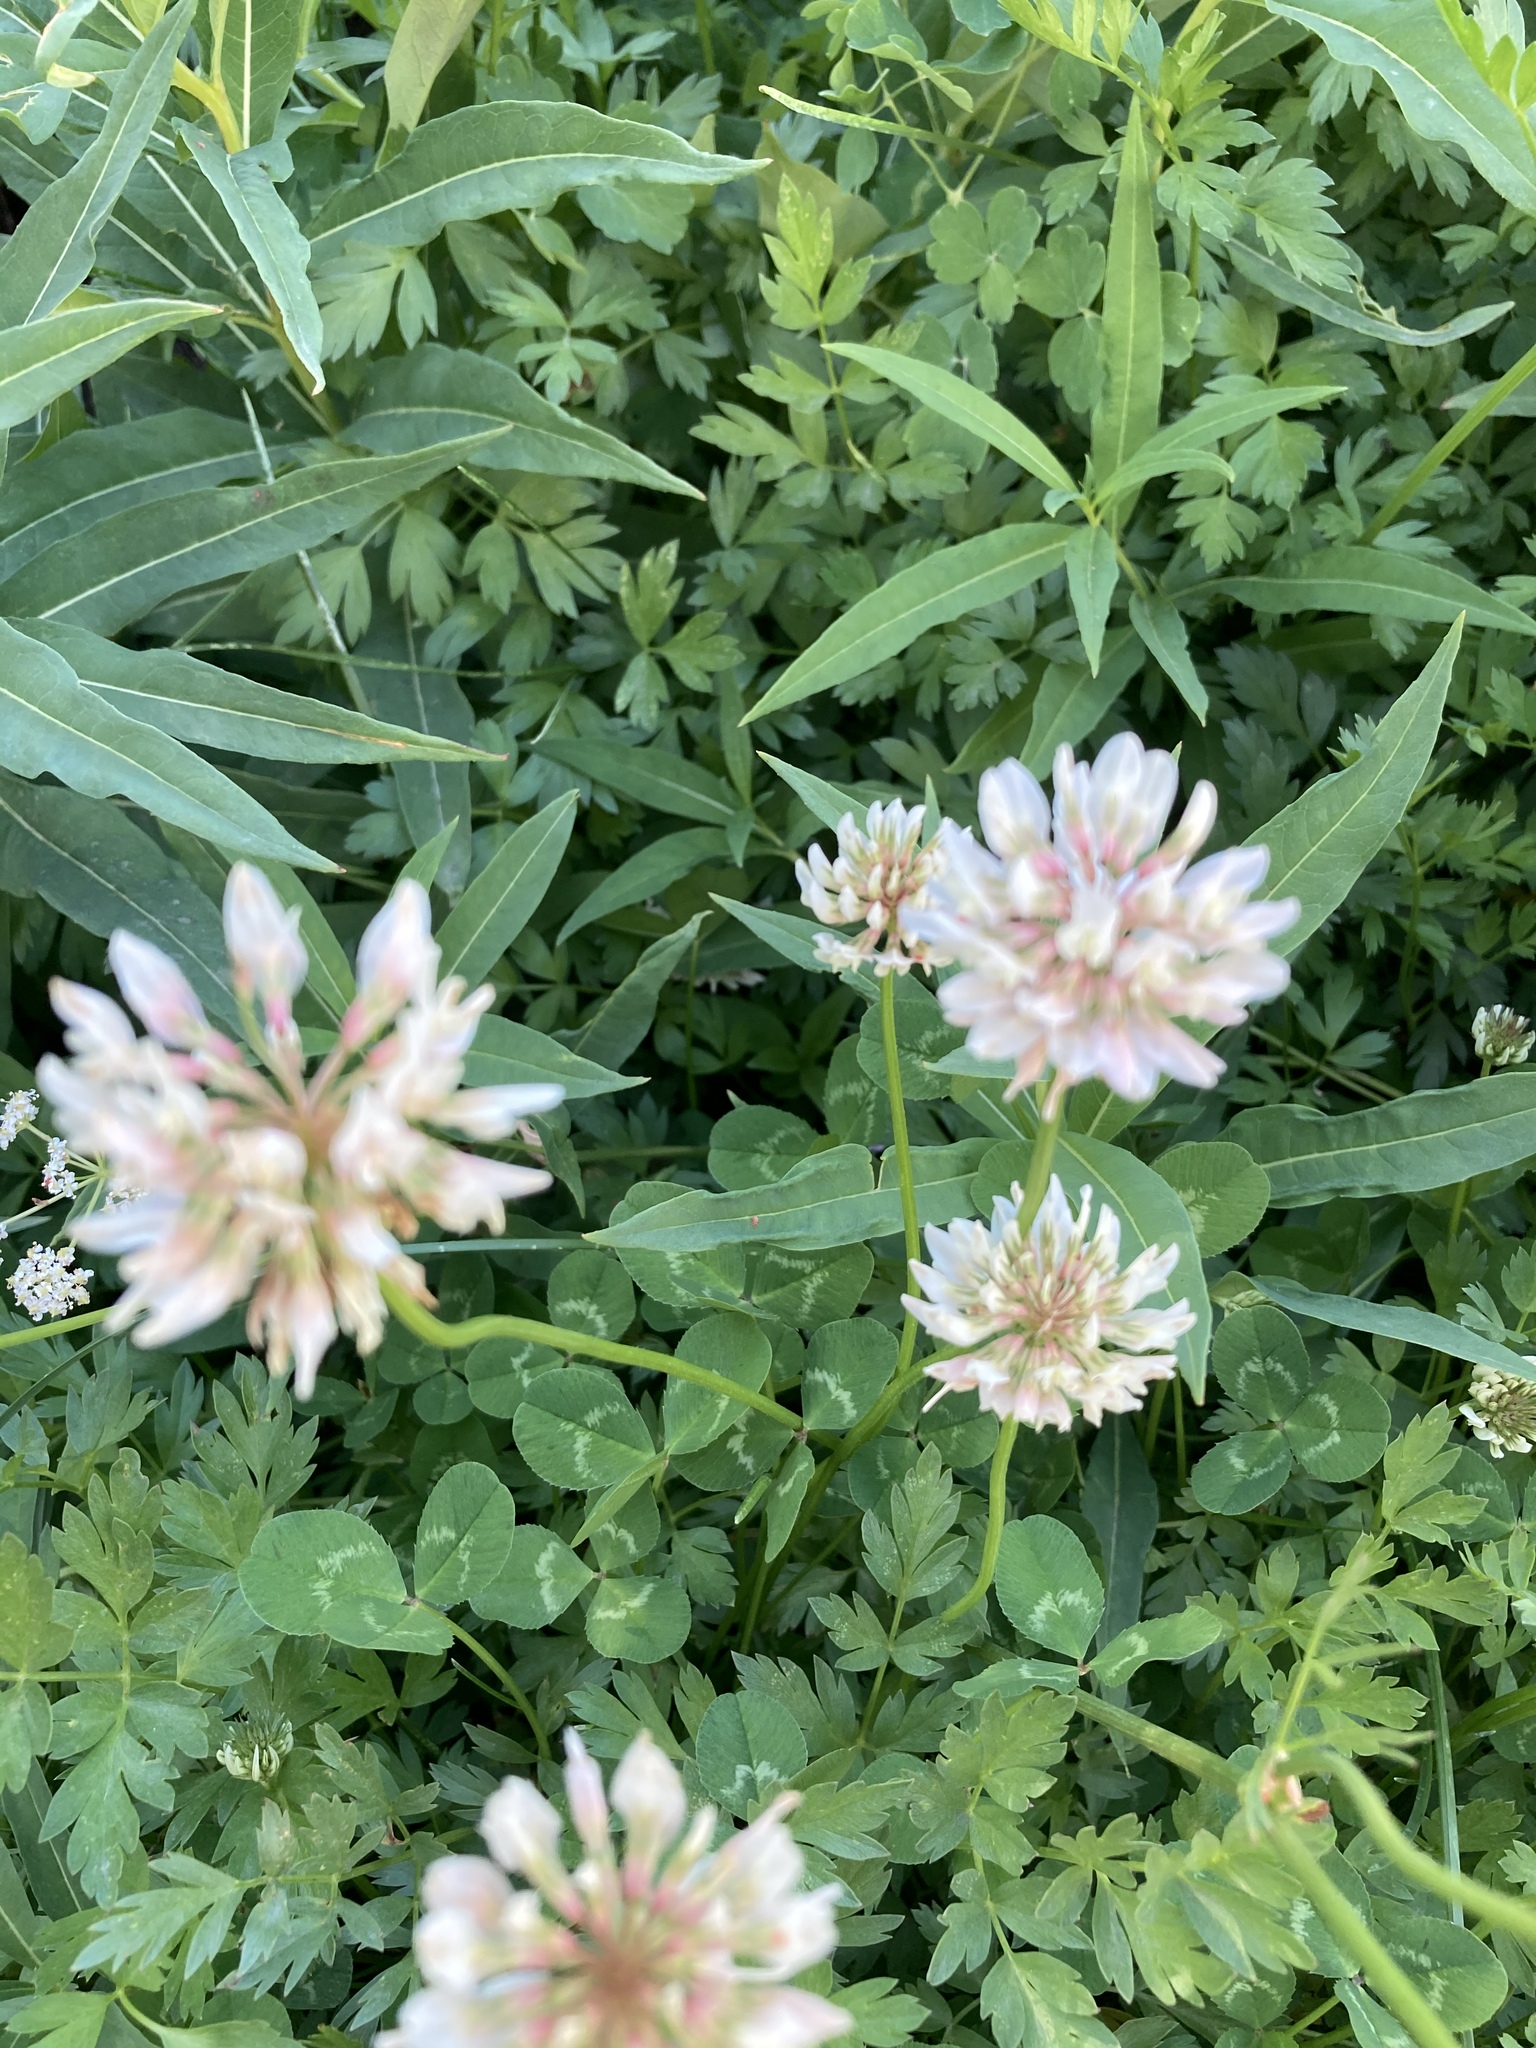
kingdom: Plantae
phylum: Tracheophyta
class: Magnoliopsida
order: Fabales
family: Fabaceae
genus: Trifolium
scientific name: Trifolium repens
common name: White clover
